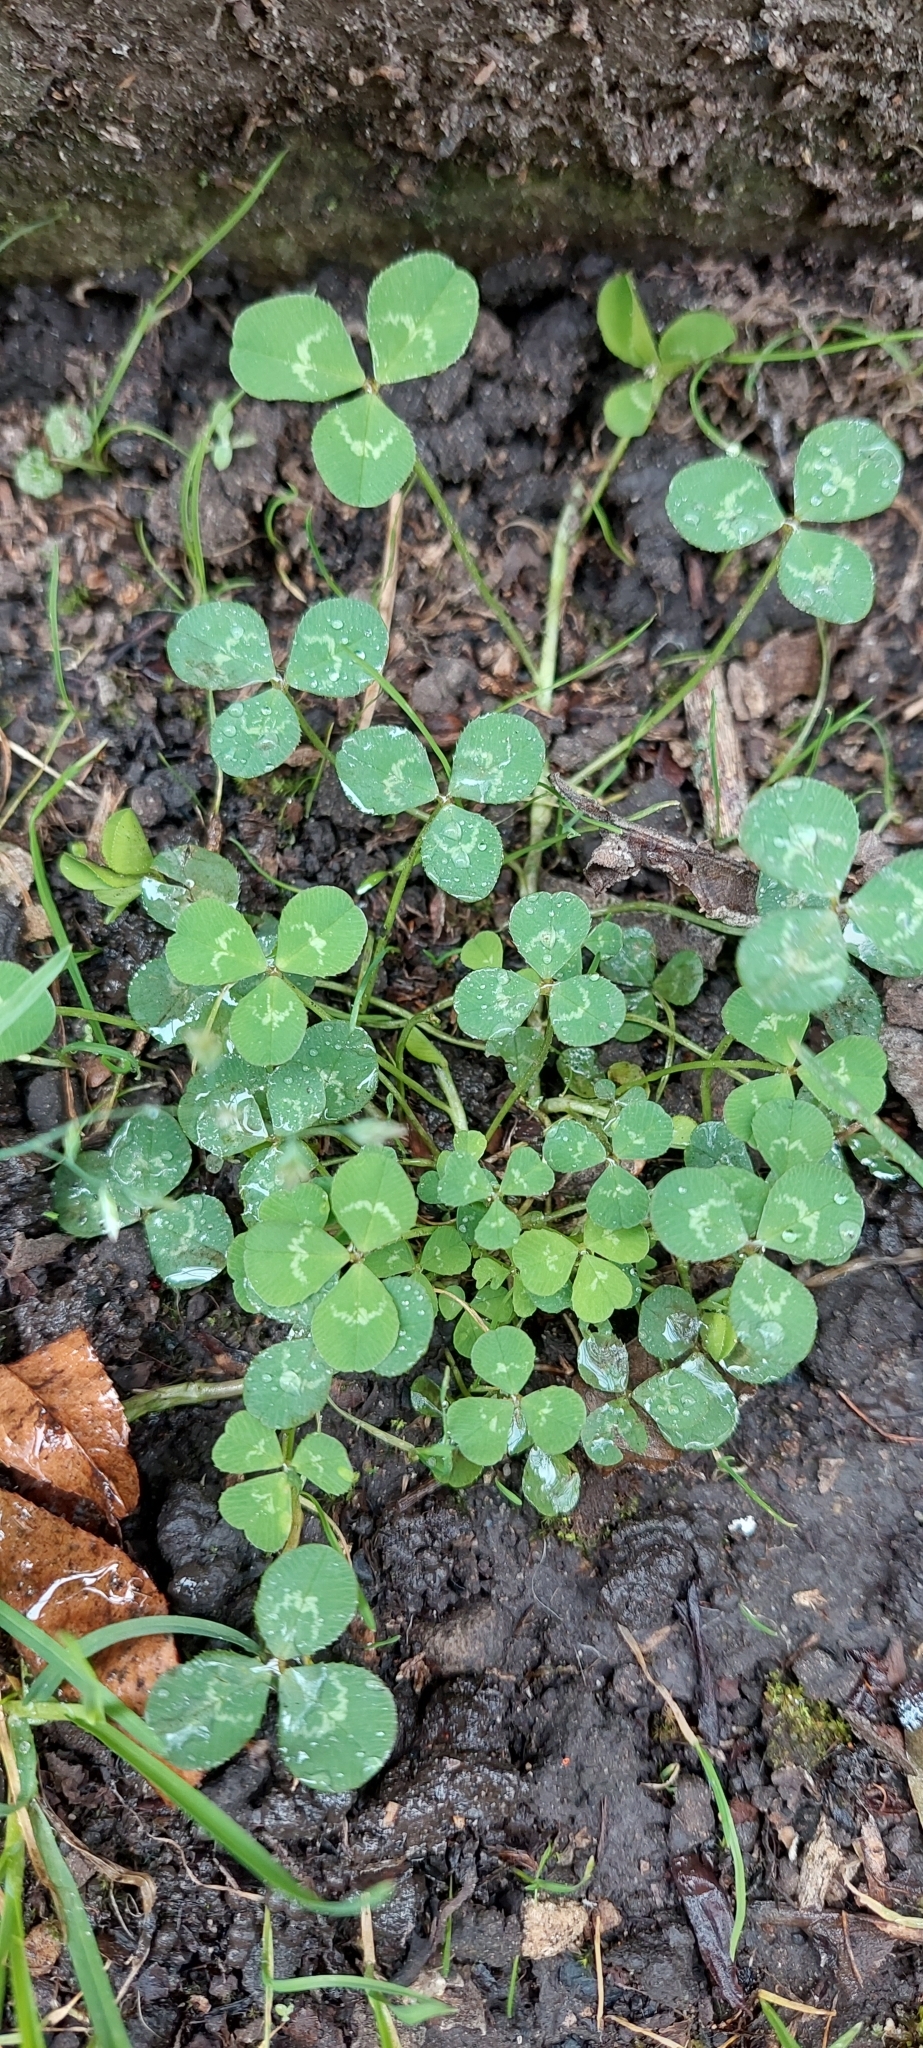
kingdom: Plantae
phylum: Tracheophyta
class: Magnoliopsida
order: Fabales
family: Fabaceae
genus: Trifolium
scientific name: Trifolium repens
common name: White clover
